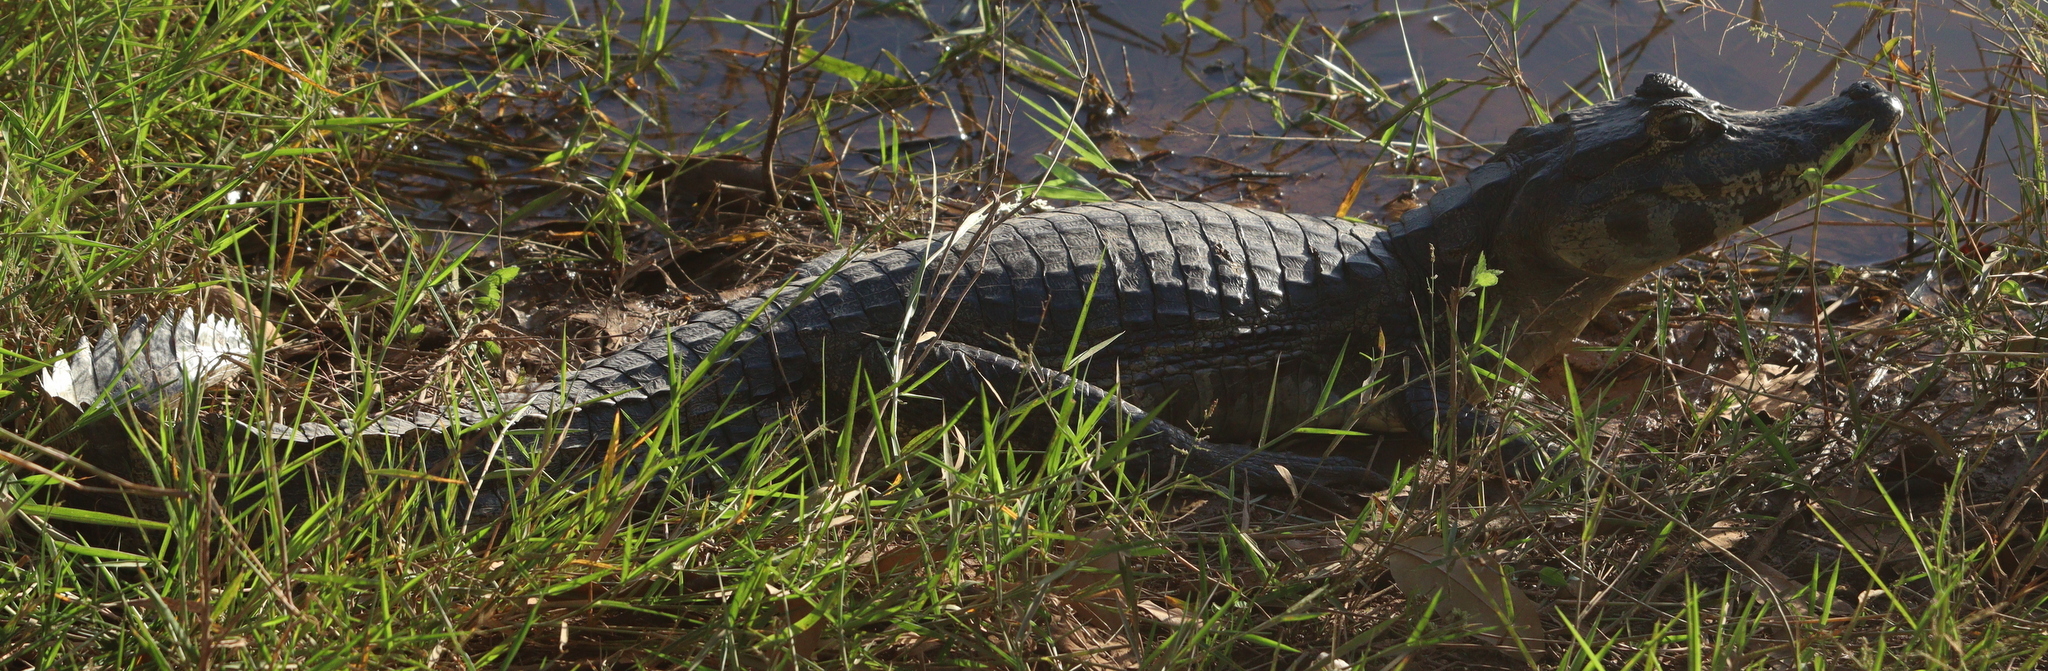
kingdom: Animalia
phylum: Chordata
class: Crocodylia
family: Alligatoridae
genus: Caiman
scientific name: Caiman yacare
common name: Yacare caiman
